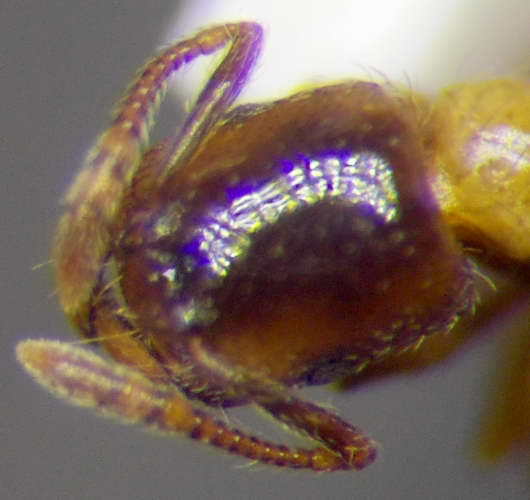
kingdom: Animalia
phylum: Arthropoda
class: Insecta
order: Hymenoptera
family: Formicidae
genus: Strongylognathus
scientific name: Strongylognathus christophi
